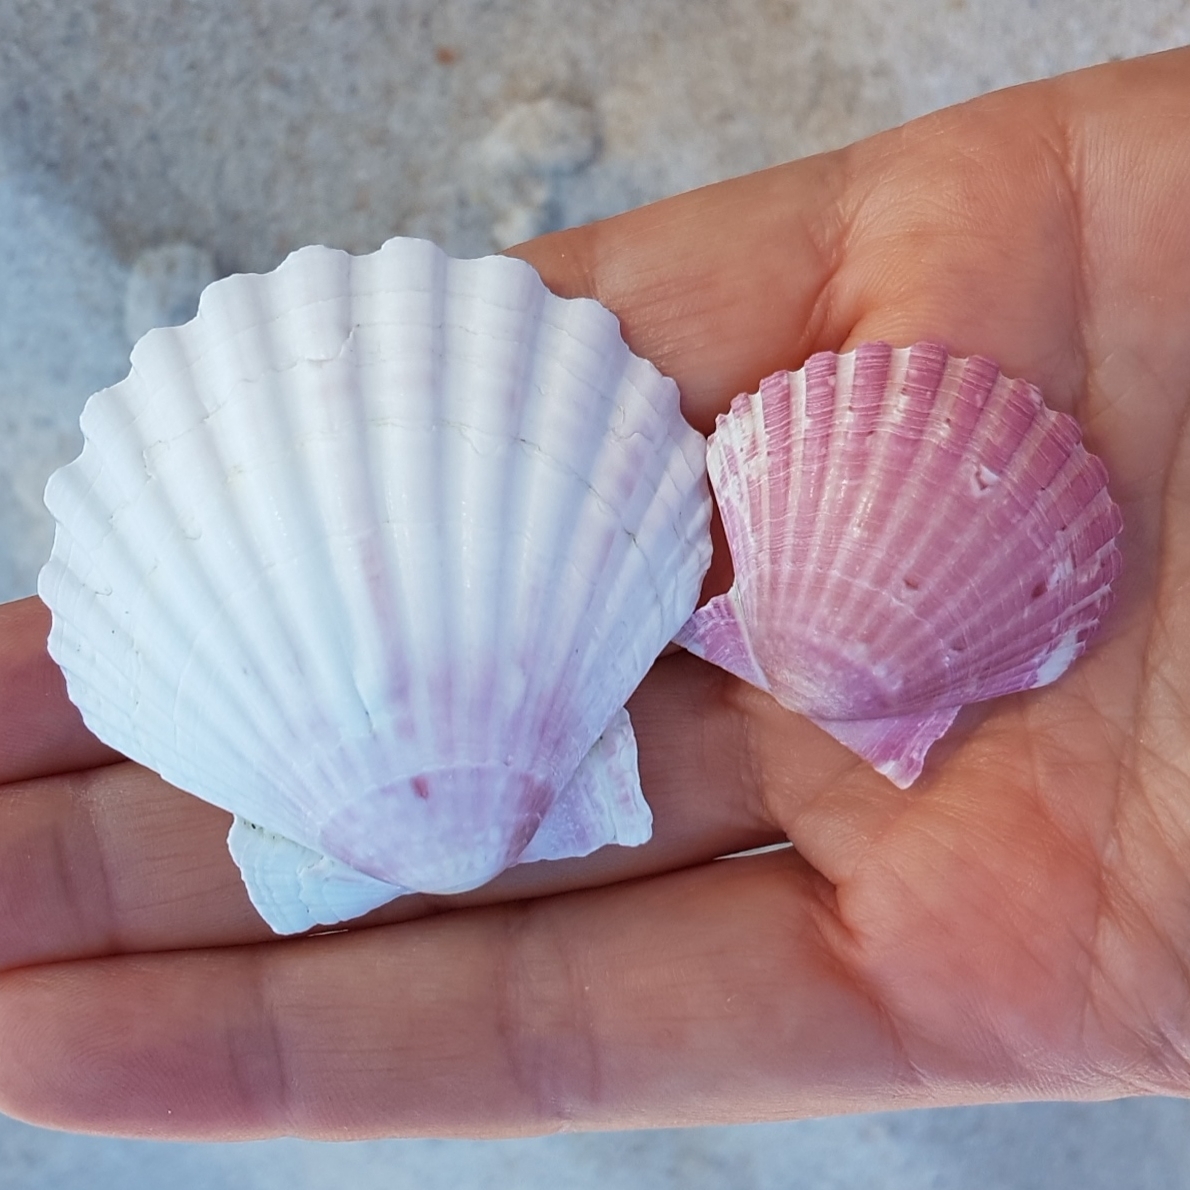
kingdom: Animalia
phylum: Mollusca
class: Bivalvia
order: Pectinida
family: Pectinidae
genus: Pecten
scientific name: Pecten maximus
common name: Great scallop
